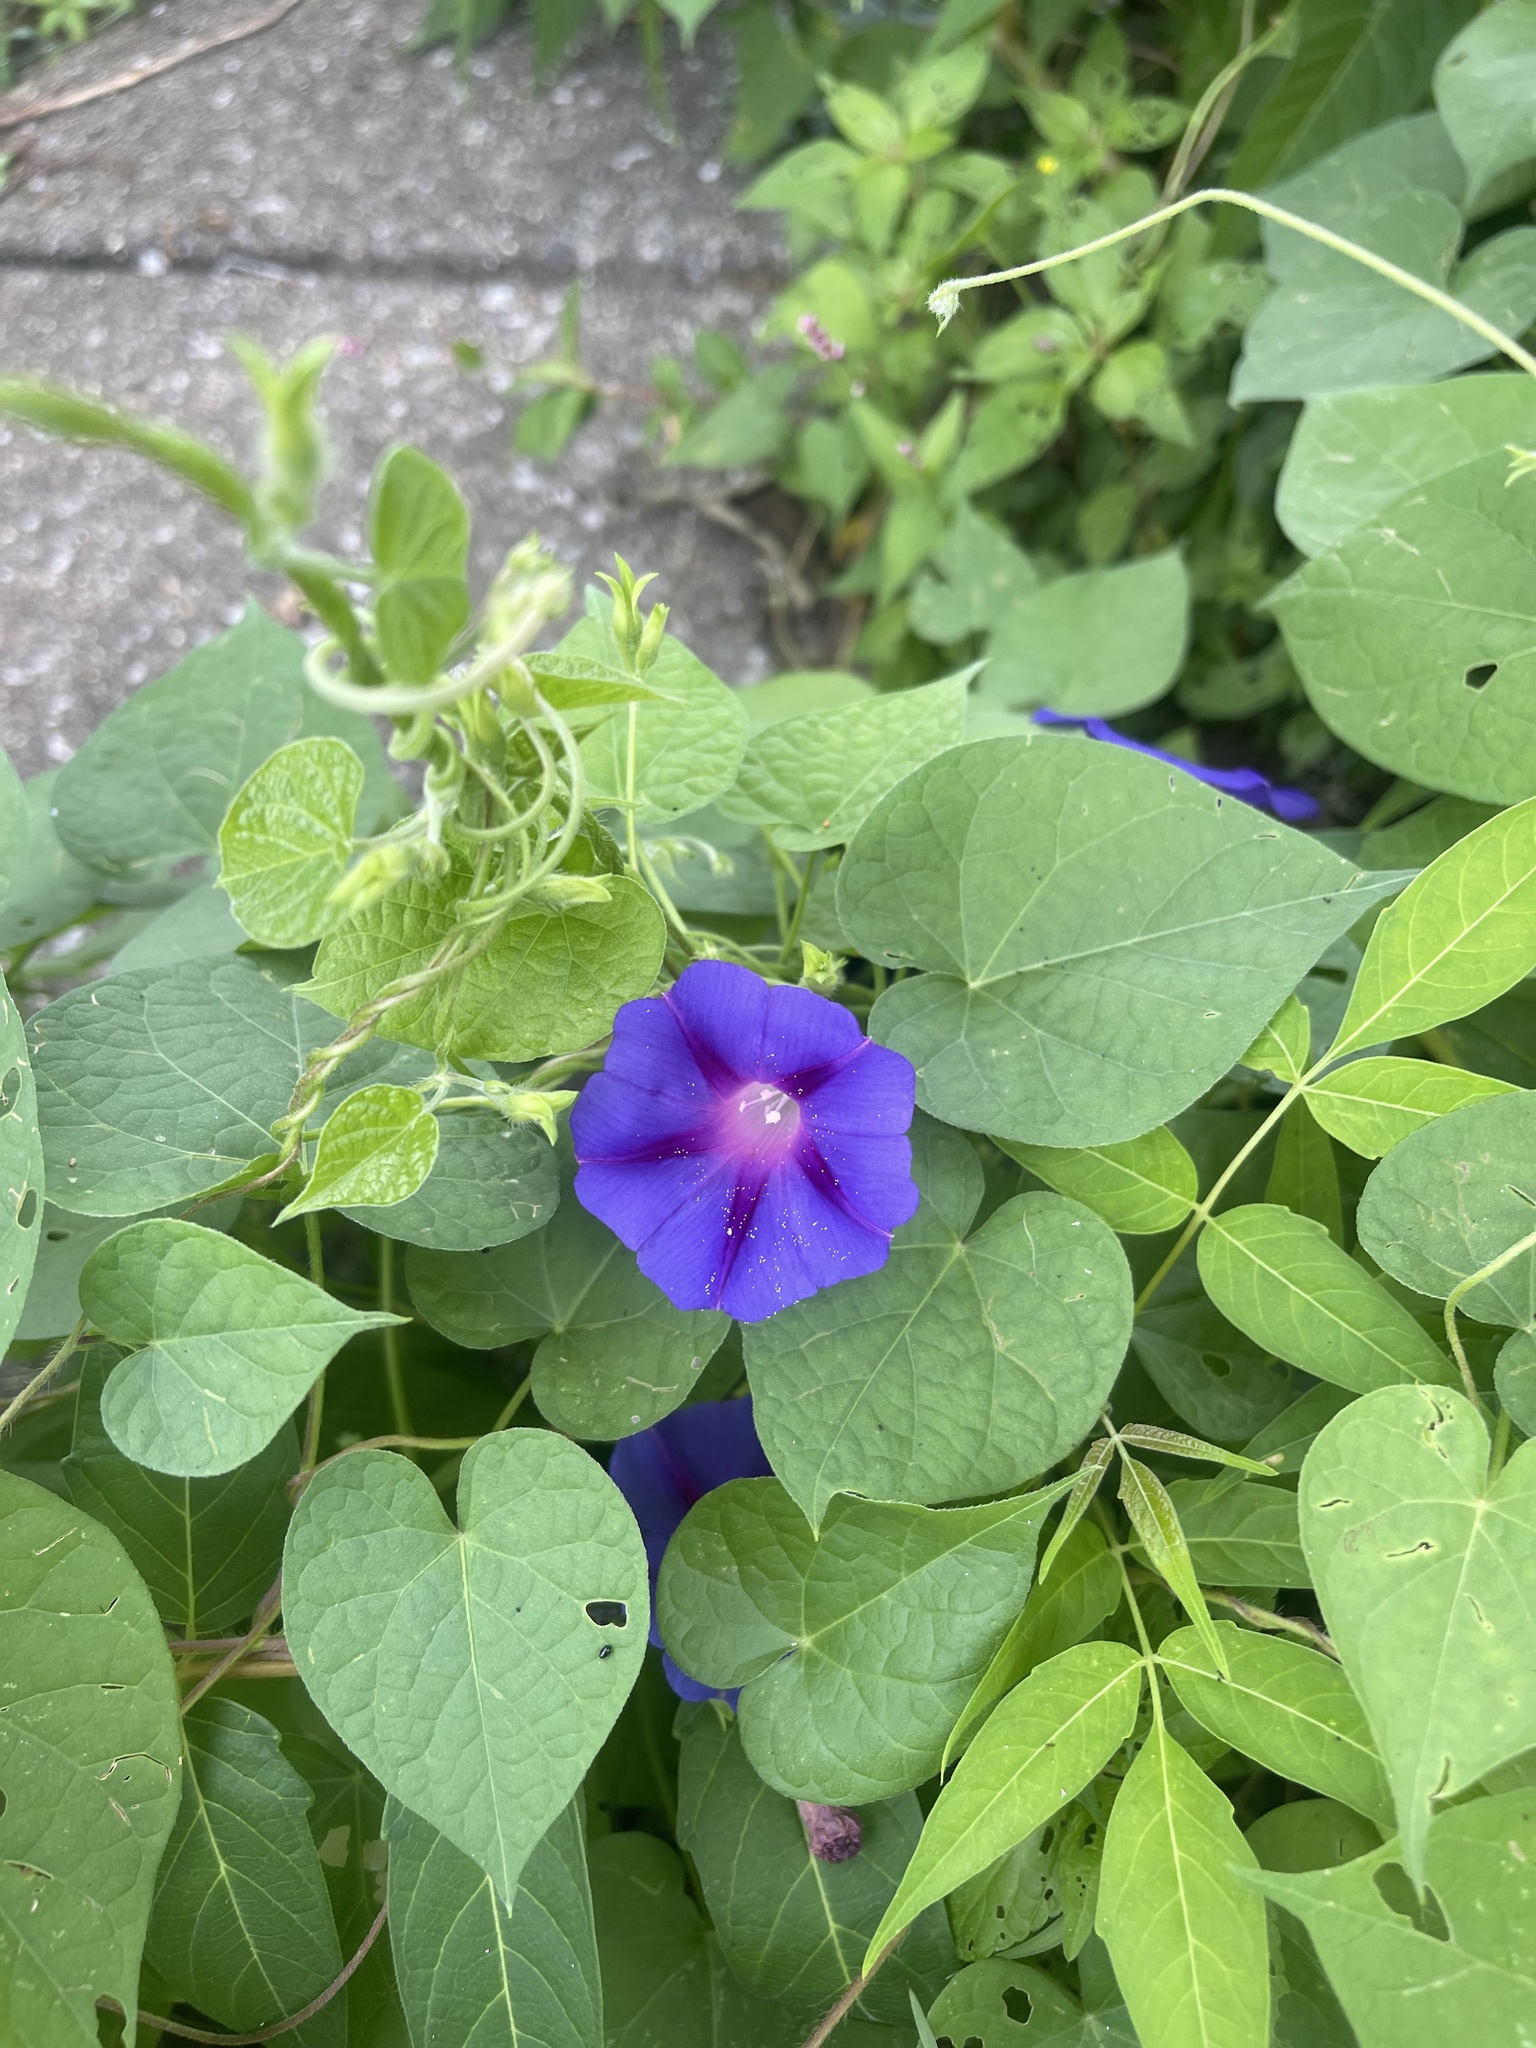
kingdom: Plantae
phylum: Tracheophyta
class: Magnoliopsida
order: Solanales
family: Convolvulaceae
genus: Ipomoea
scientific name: Ipomoea purpurea
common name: Common morning-glory
